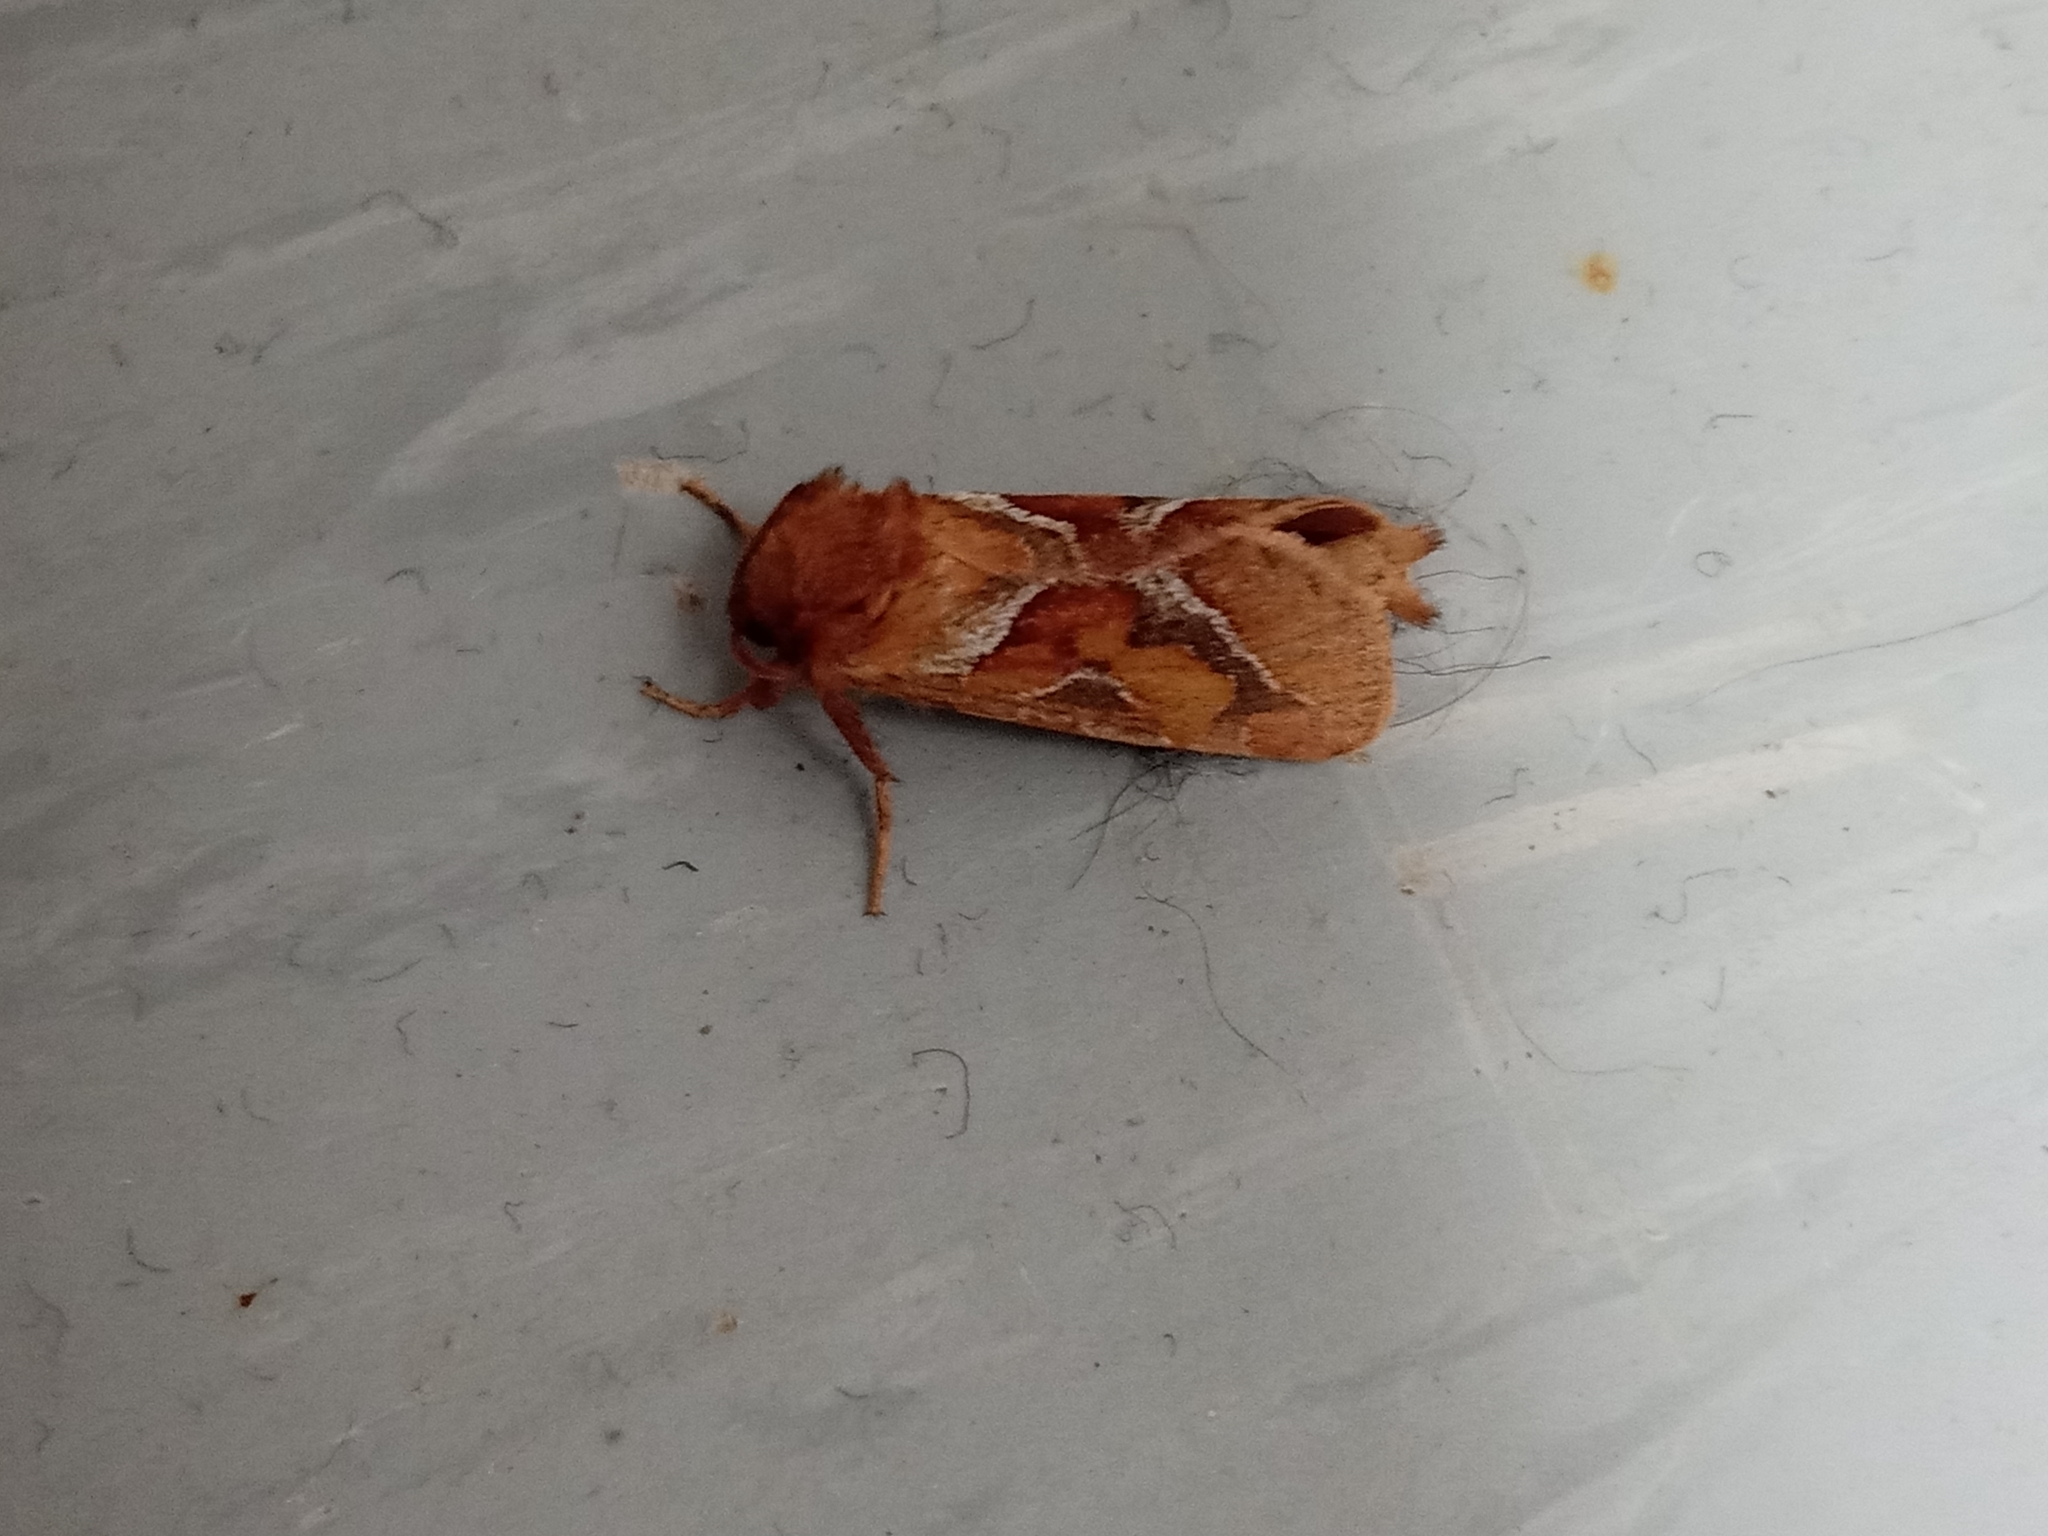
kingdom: Animalia
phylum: Arthropoda
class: Insecta
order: Lepidoptera
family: Hepialidae
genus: Triodia
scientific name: Triodia sylvina
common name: Orange swift
